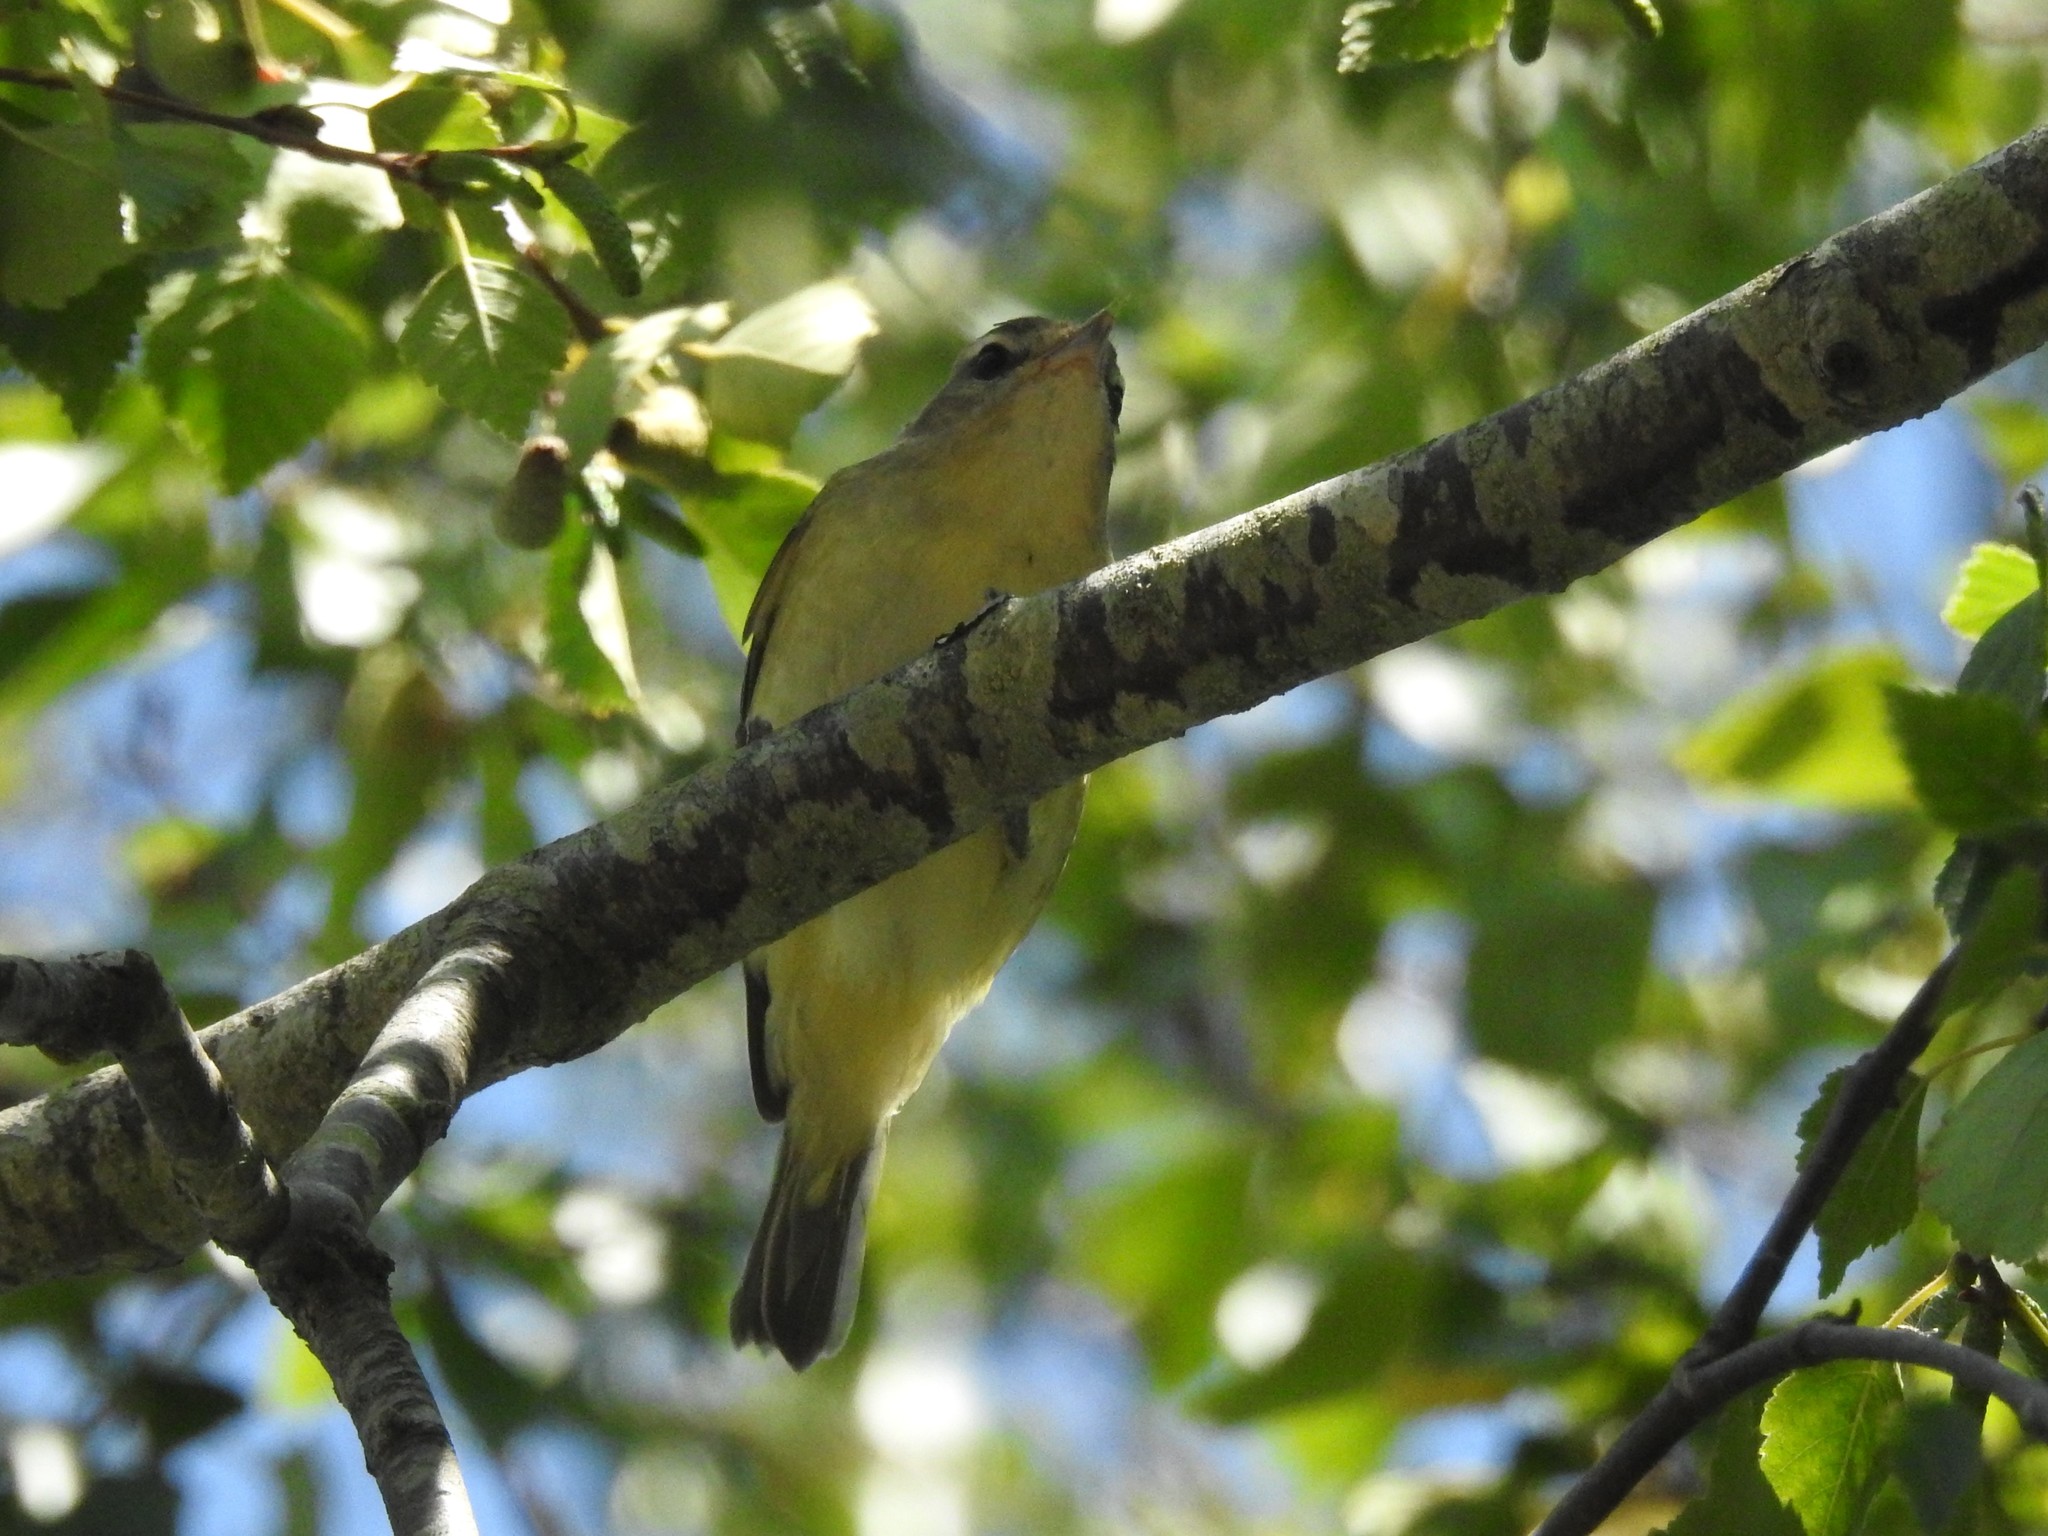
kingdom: Animalia
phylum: Chordata
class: Aves
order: Passeriformes
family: Vireonidae
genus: Vireo
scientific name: Vireo gilvus
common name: Warbling vireo
